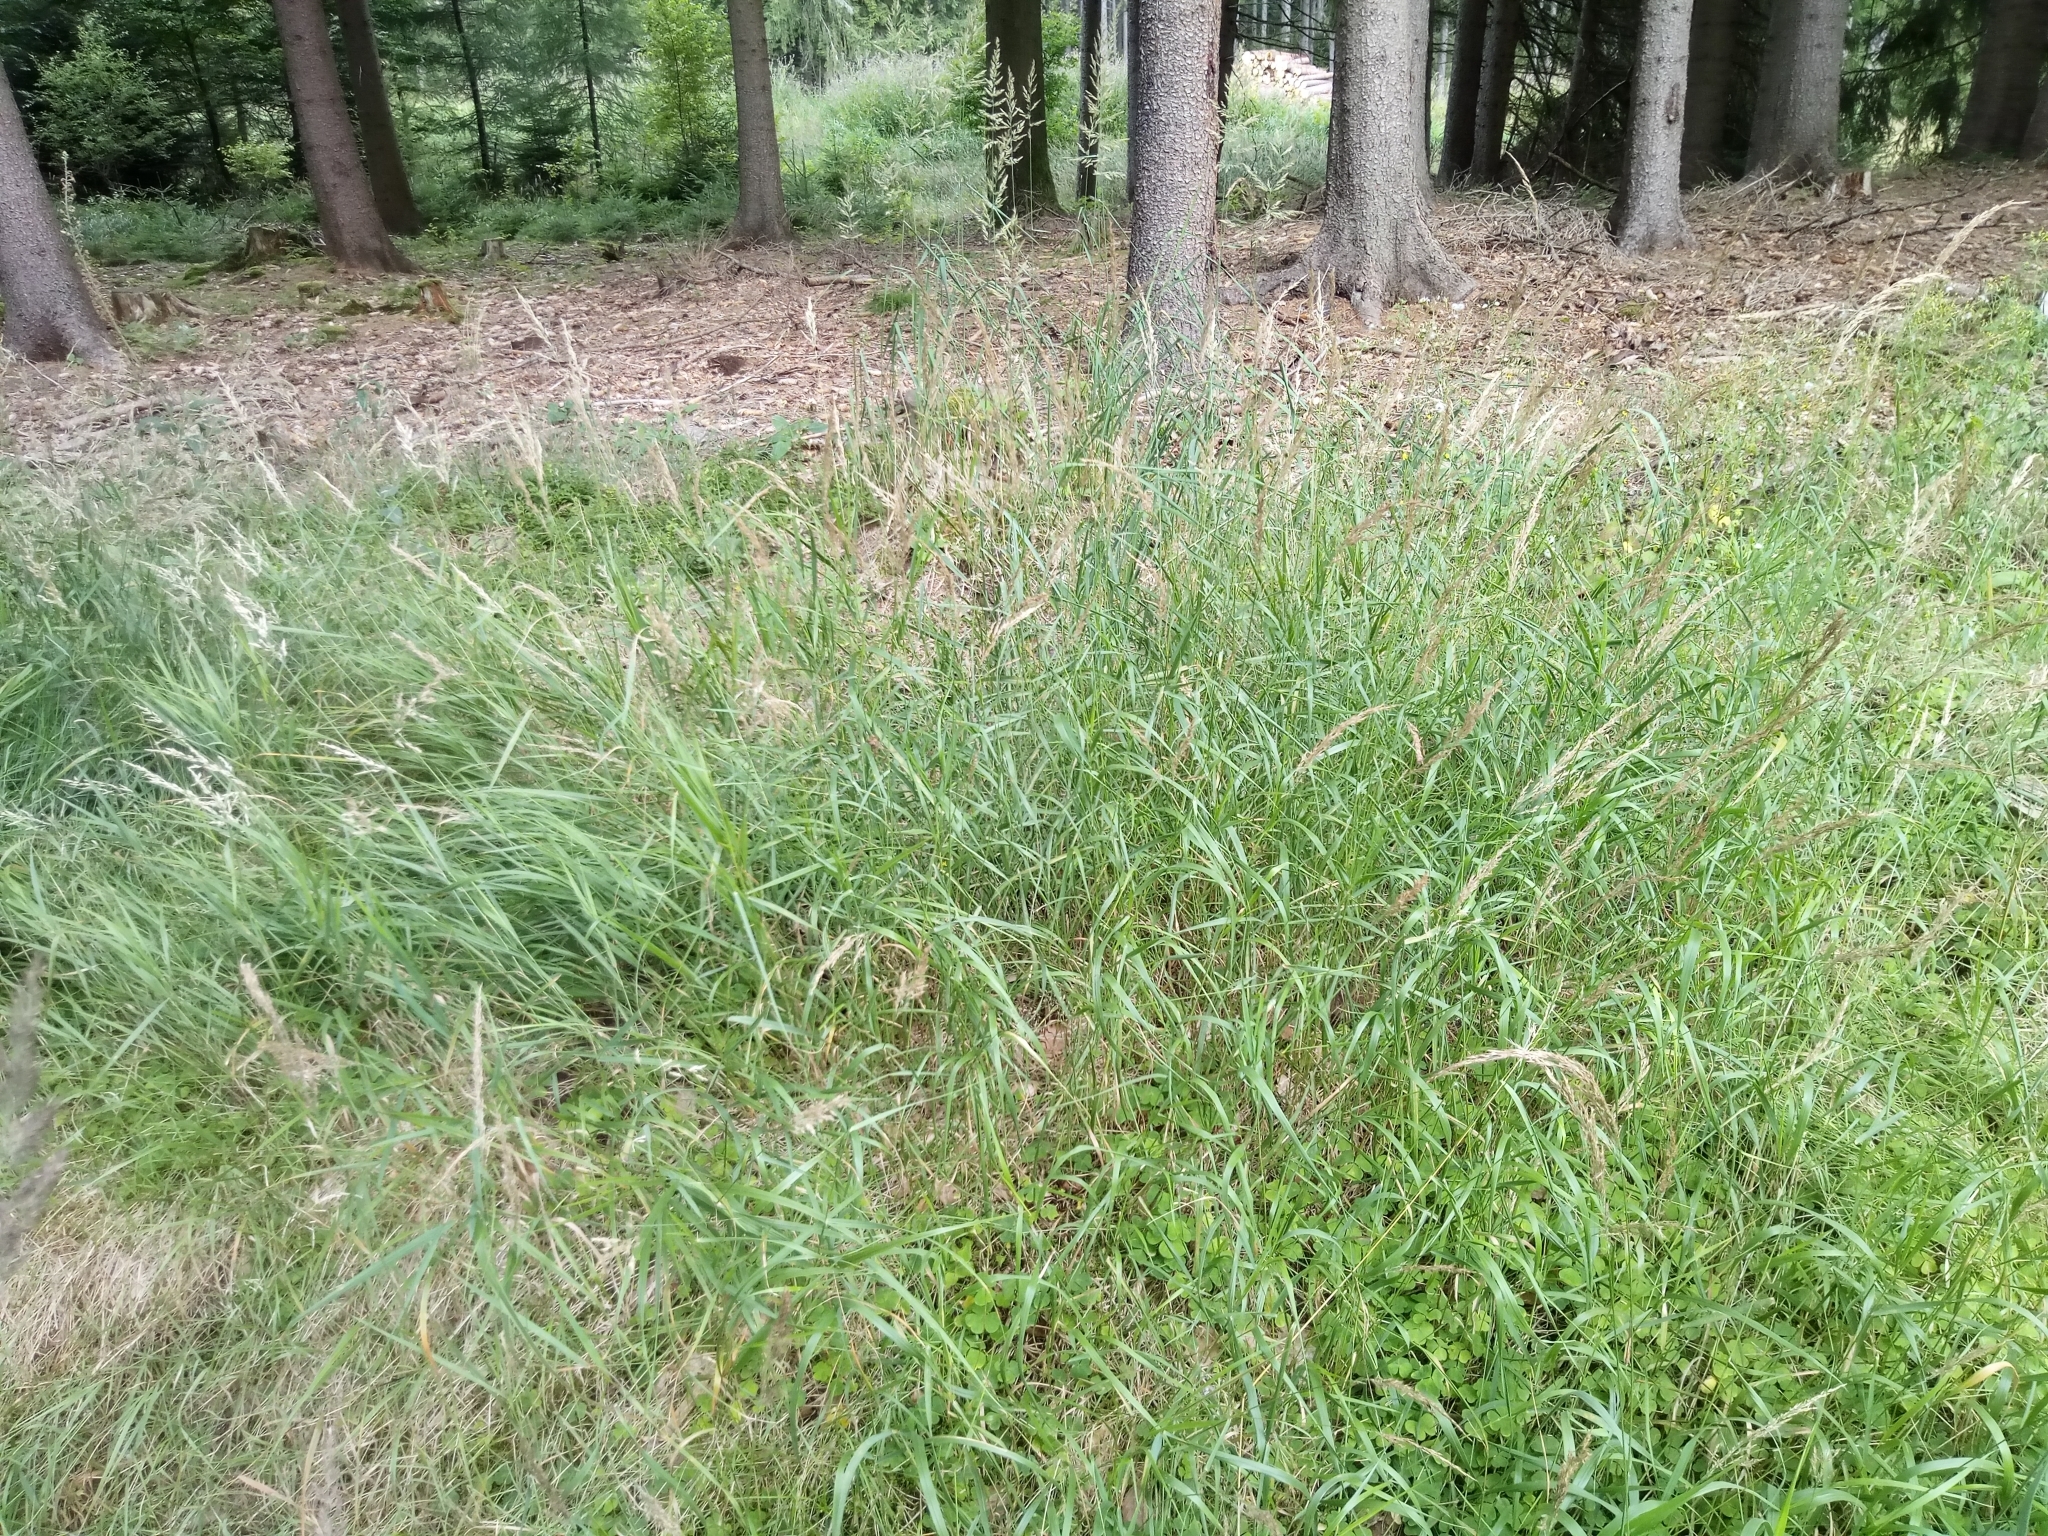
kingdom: Plantae
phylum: Tracheophyta
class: Liliopsida
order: Poales
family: Poaceae
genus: Calamagrostis
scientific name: Calamagrostis villosa
